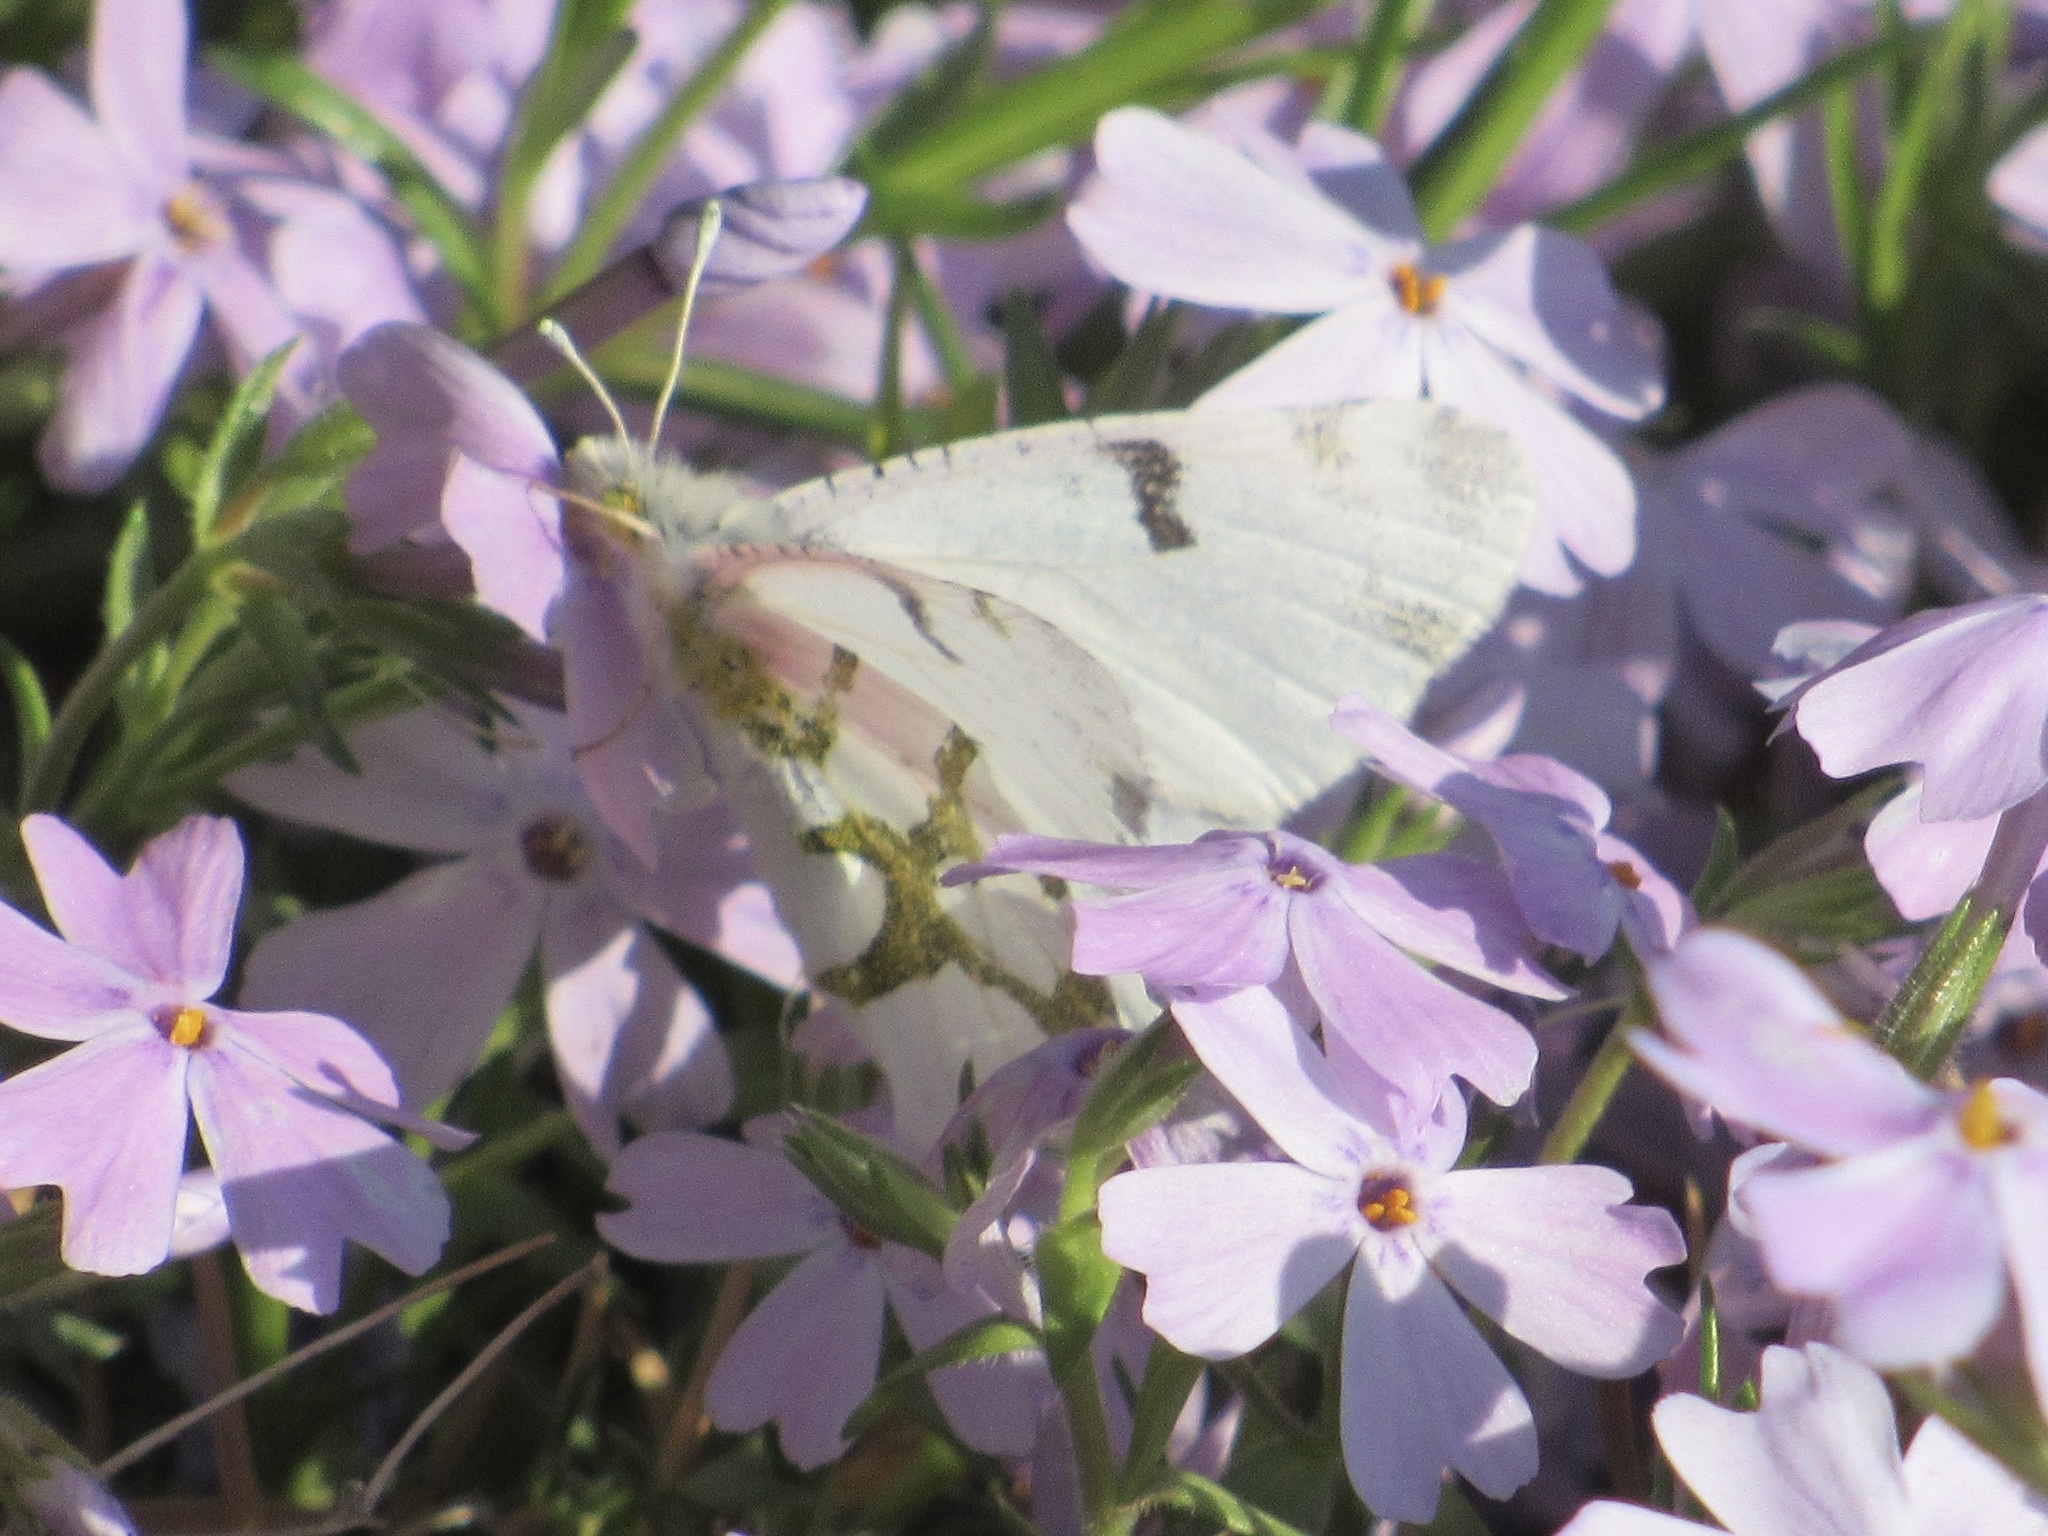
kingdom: Animalia
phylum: Arthropoda
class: Insecta
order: Lepidoptera
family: Pieridae
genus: Euchloe
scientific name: Euchloe olympia
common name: Olympia
